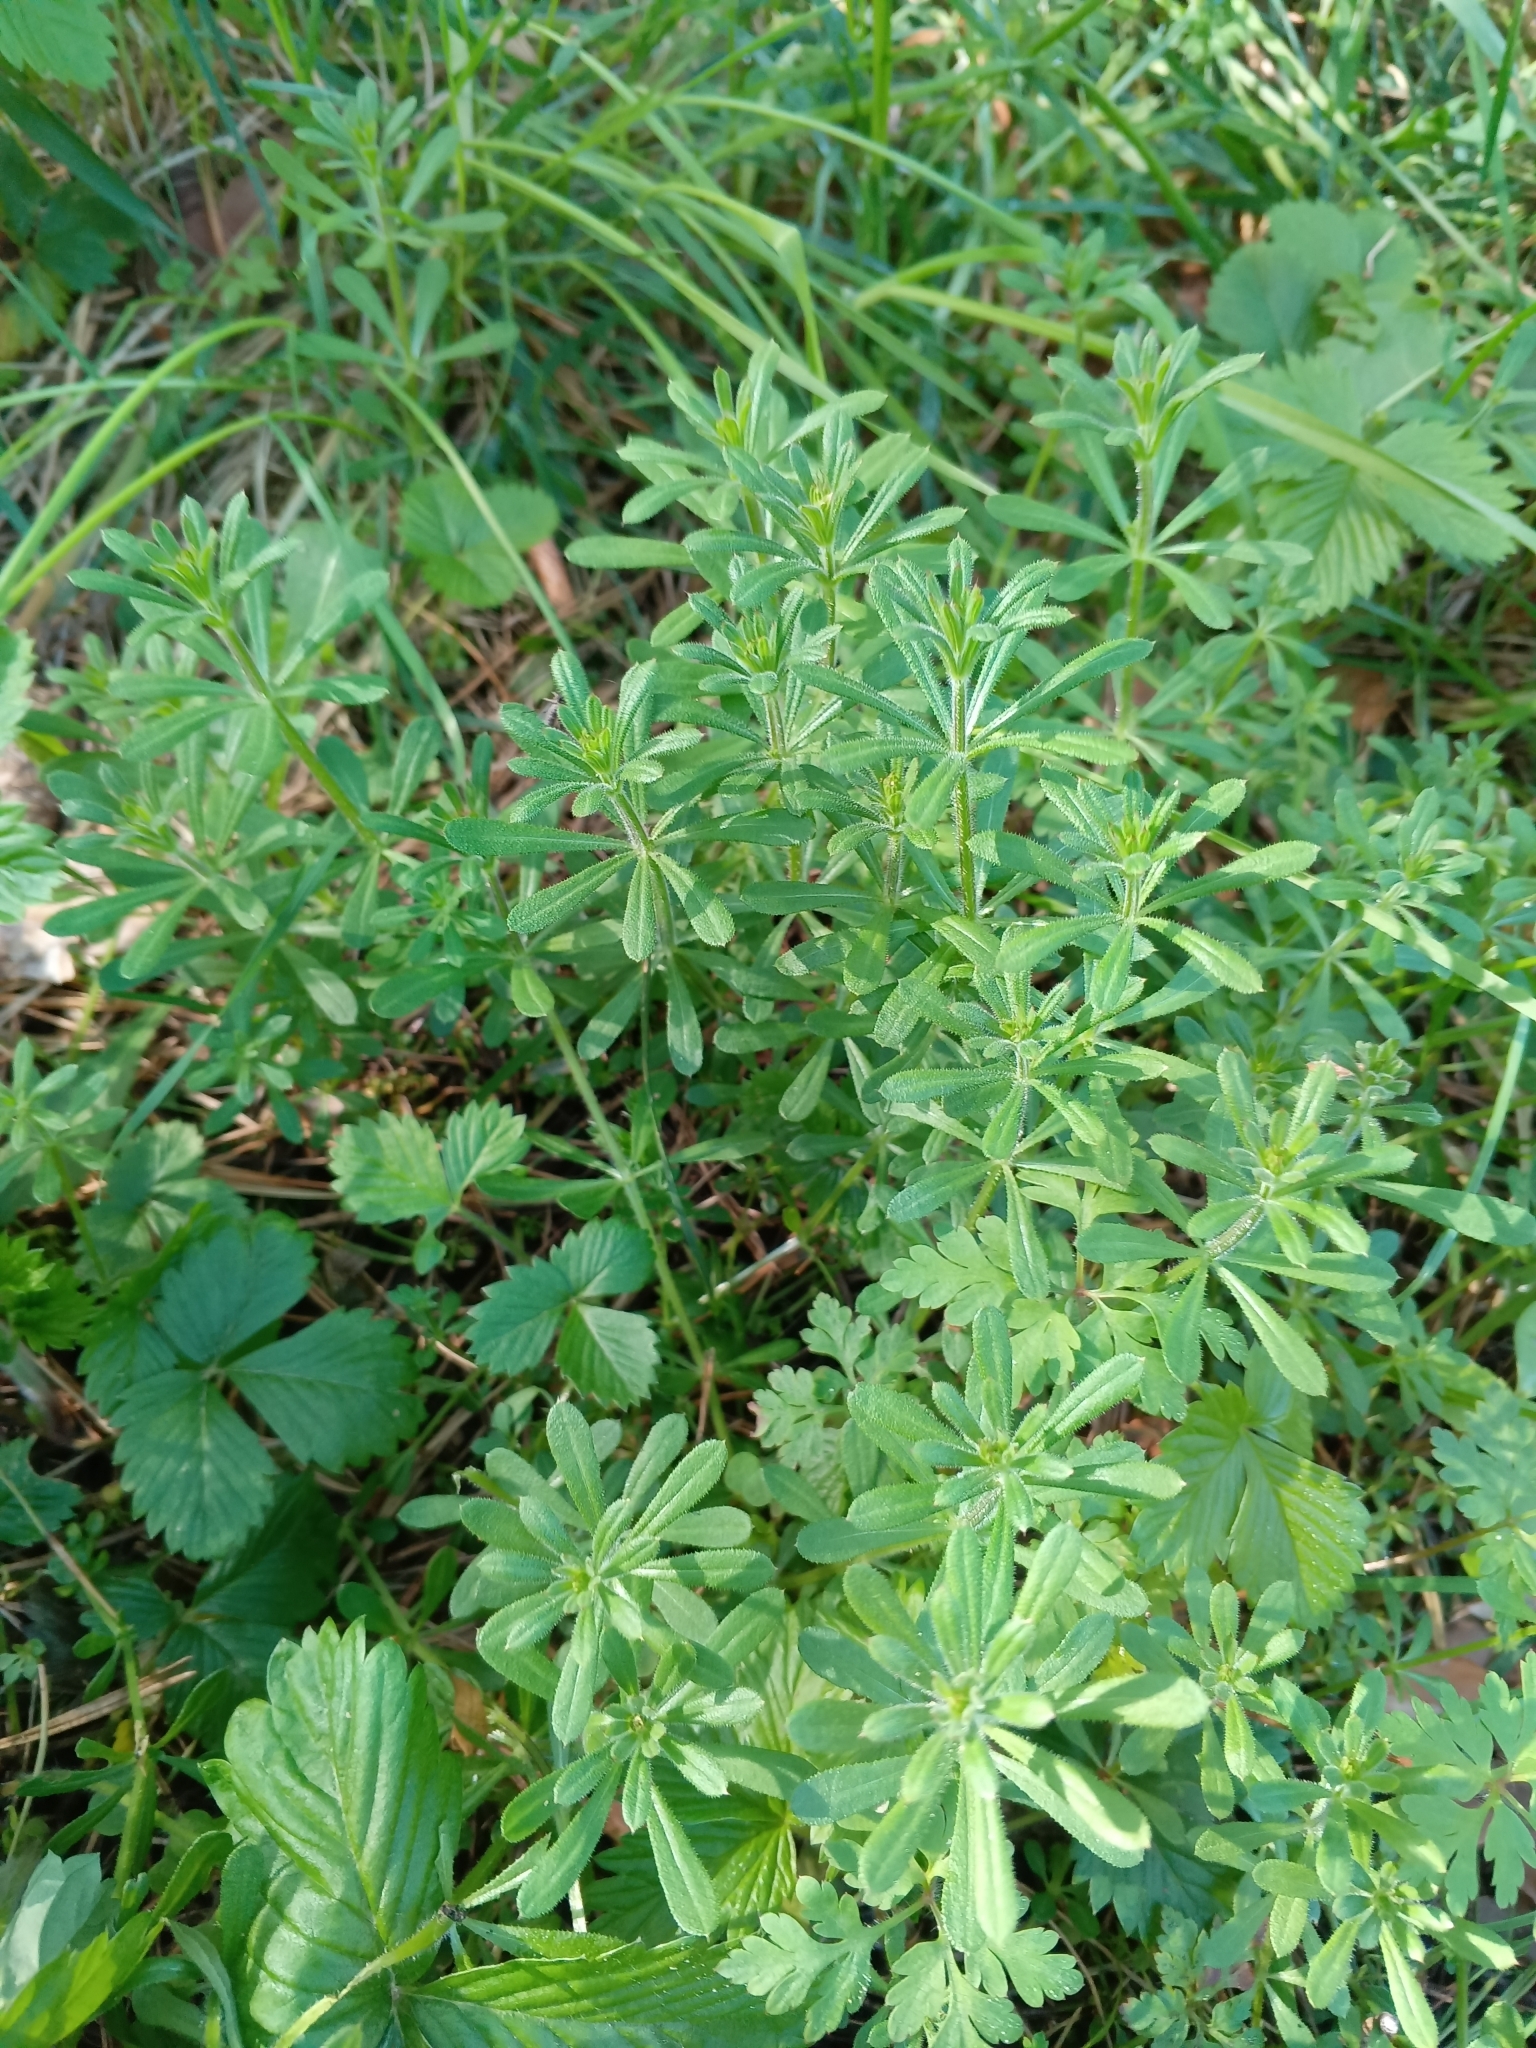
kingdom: Plantae
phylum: Tracheophyta
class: Magnoliopsida
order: Gentianales
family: Rubiaceae
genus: Galium
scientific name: Galium aparine
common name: Cleavers
